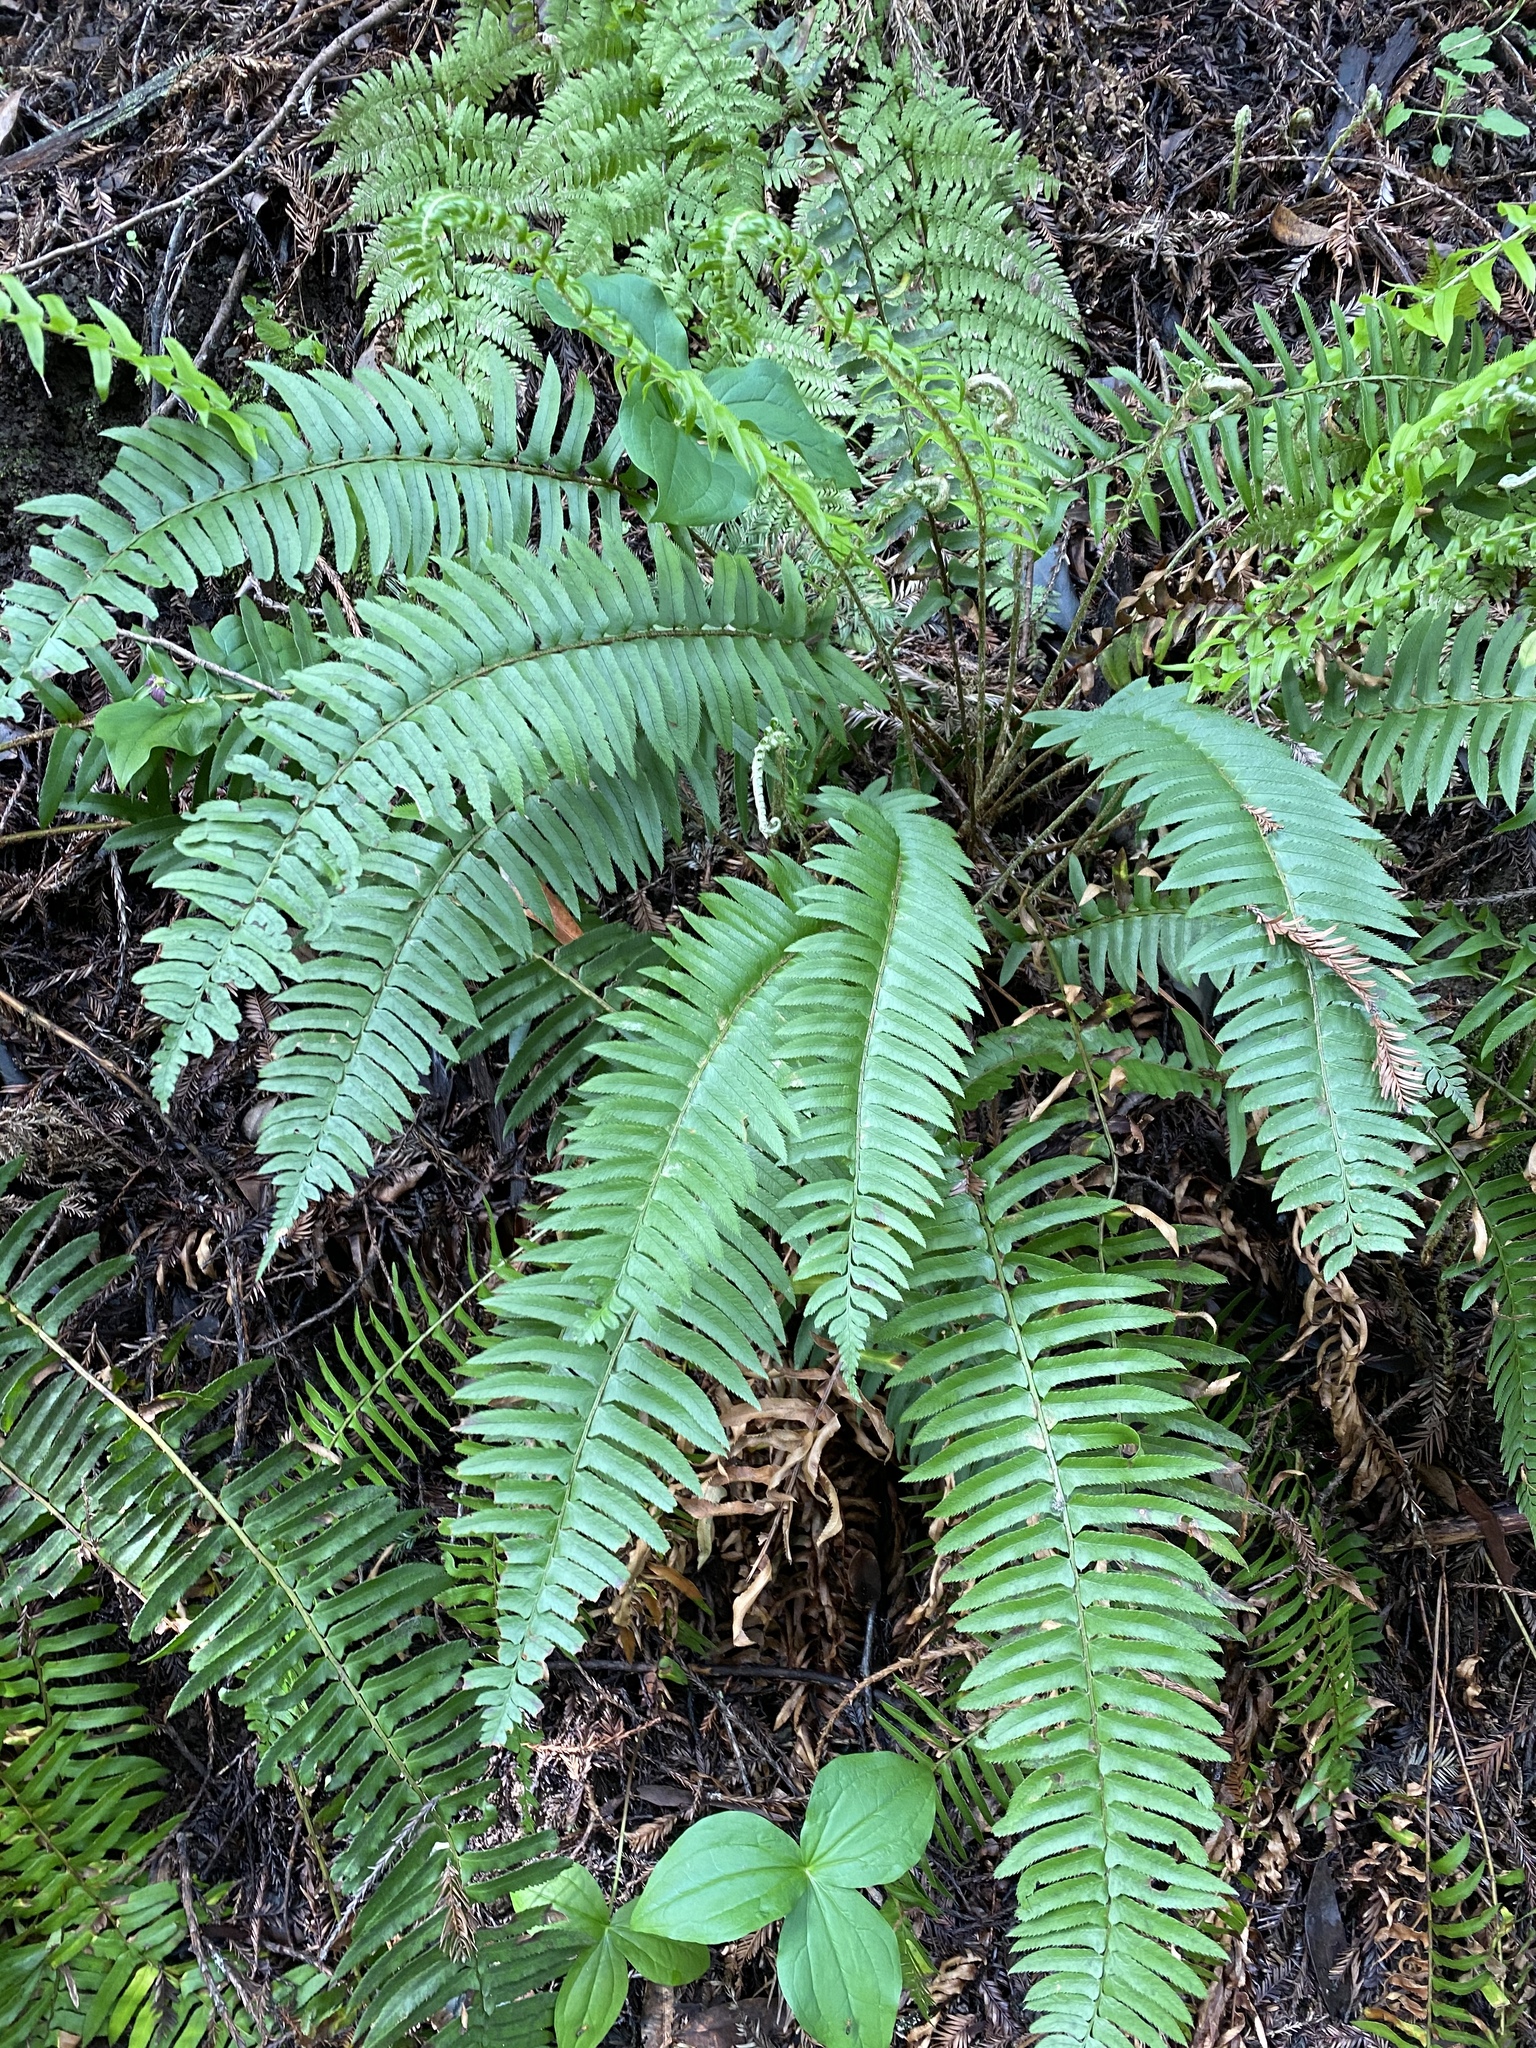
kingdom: Plantae
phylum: Tracheophyta
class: Polypodiopsida
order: Polypodiales
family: Dryopteridaceae
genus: Polystichum
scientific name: Polystichum munitum
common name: Western sword-fern
